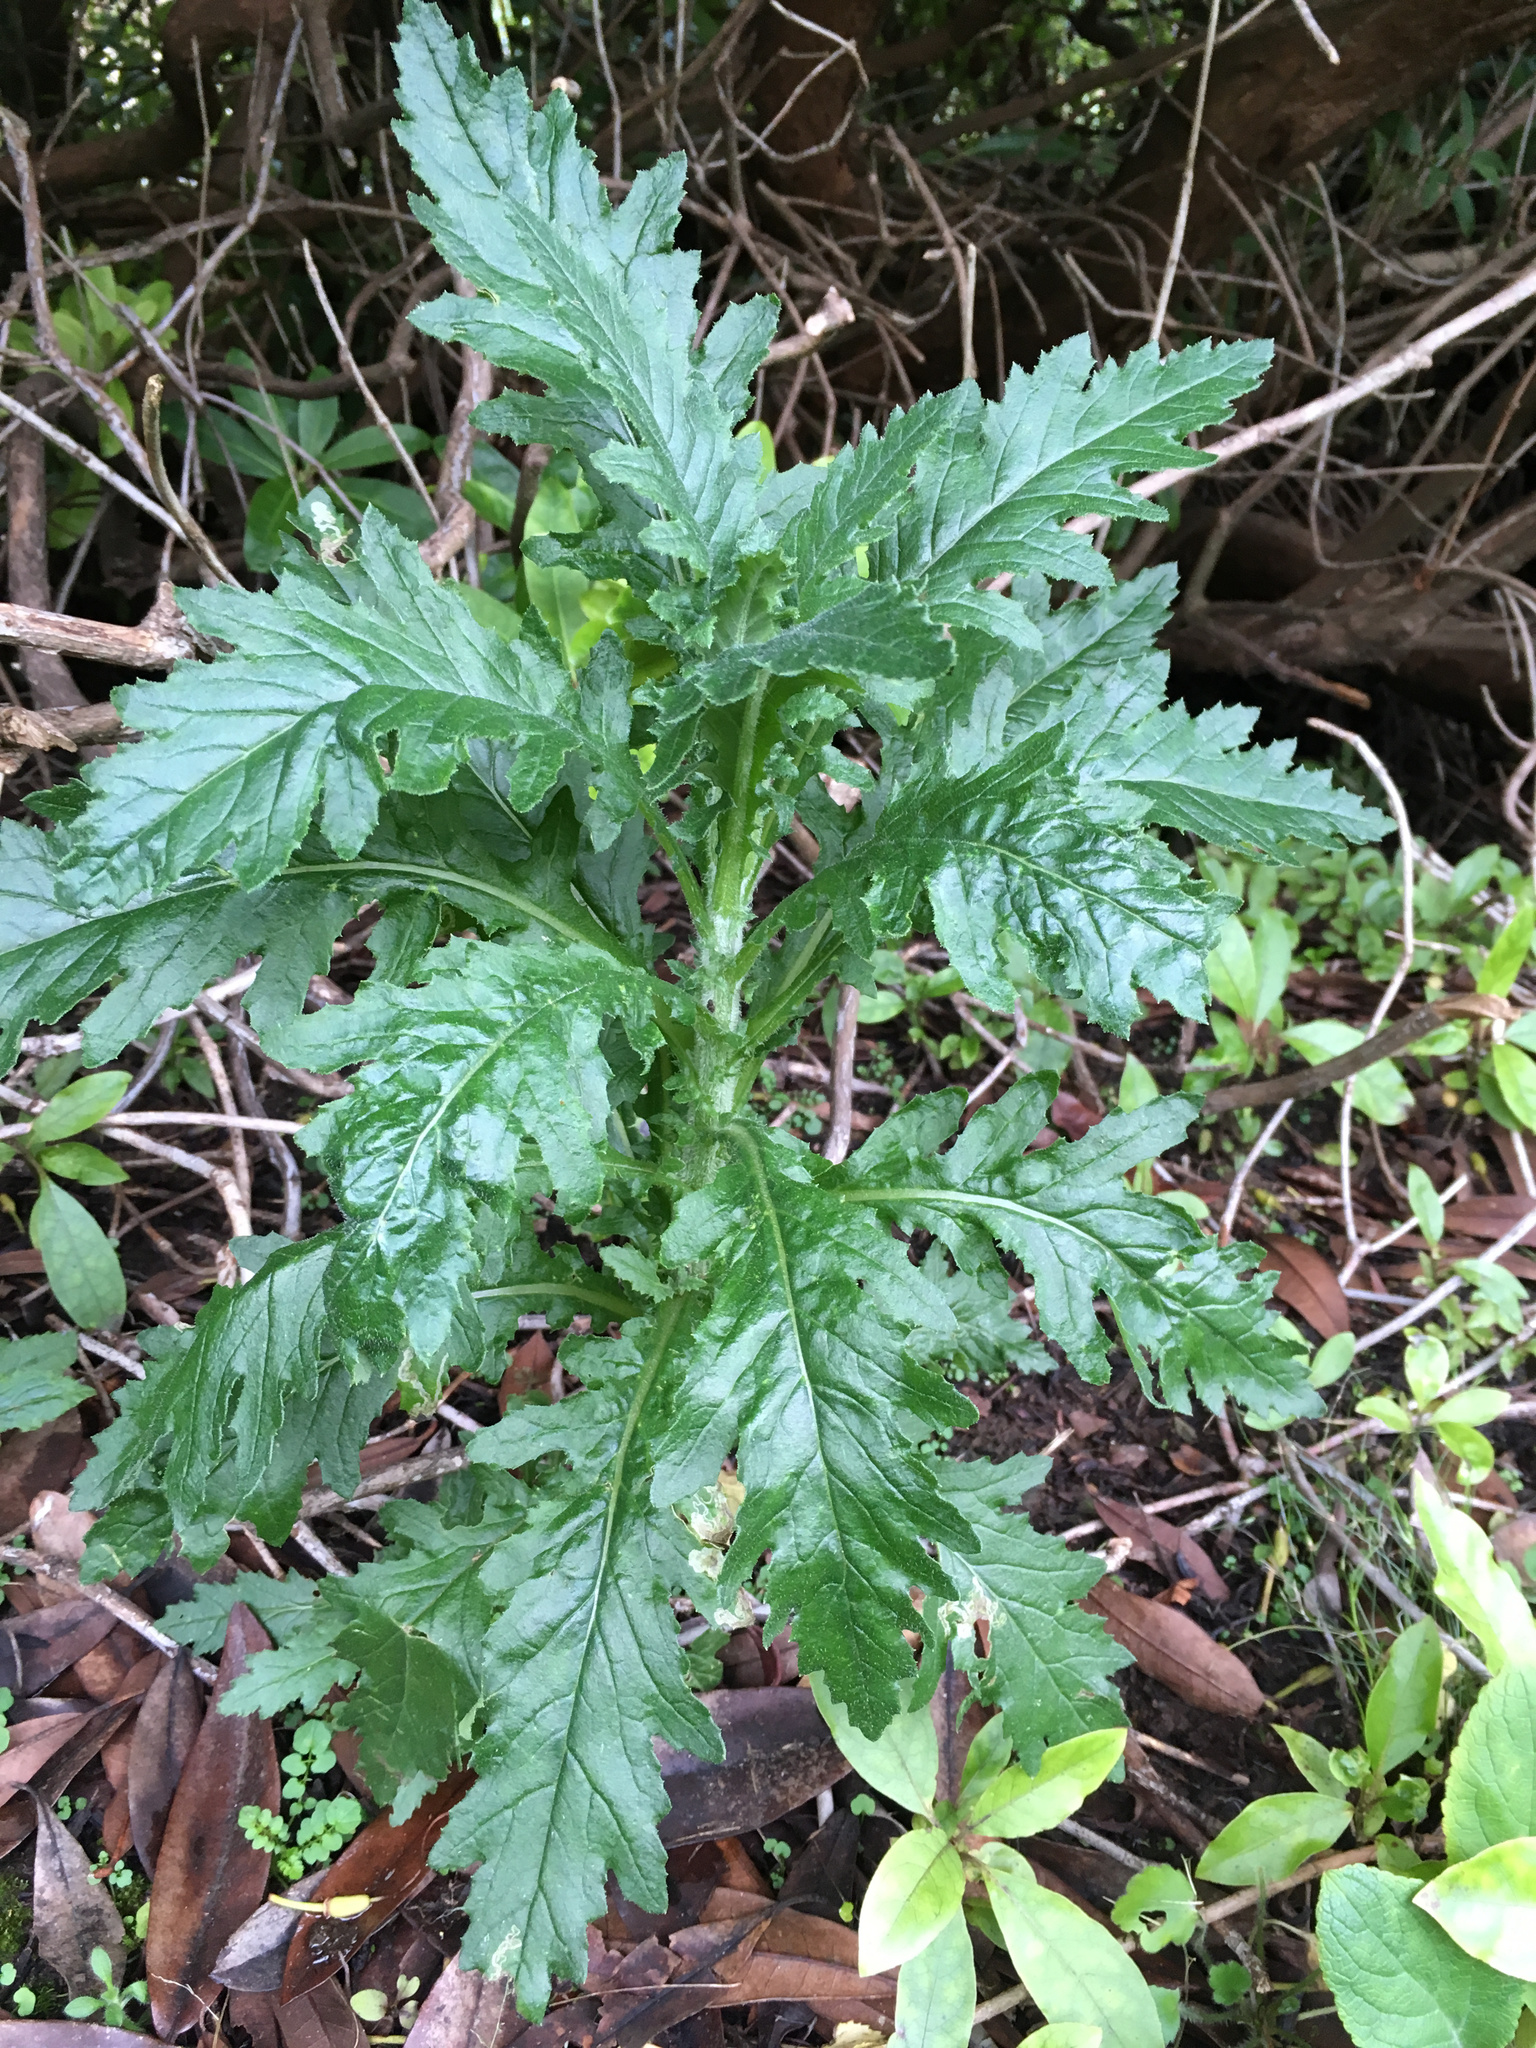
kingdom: Plantae
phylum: Tracheophyta
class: Magnoliopsida
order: Asterales
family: Asteraceae
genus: Senecio
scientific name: Senecio biserratus
